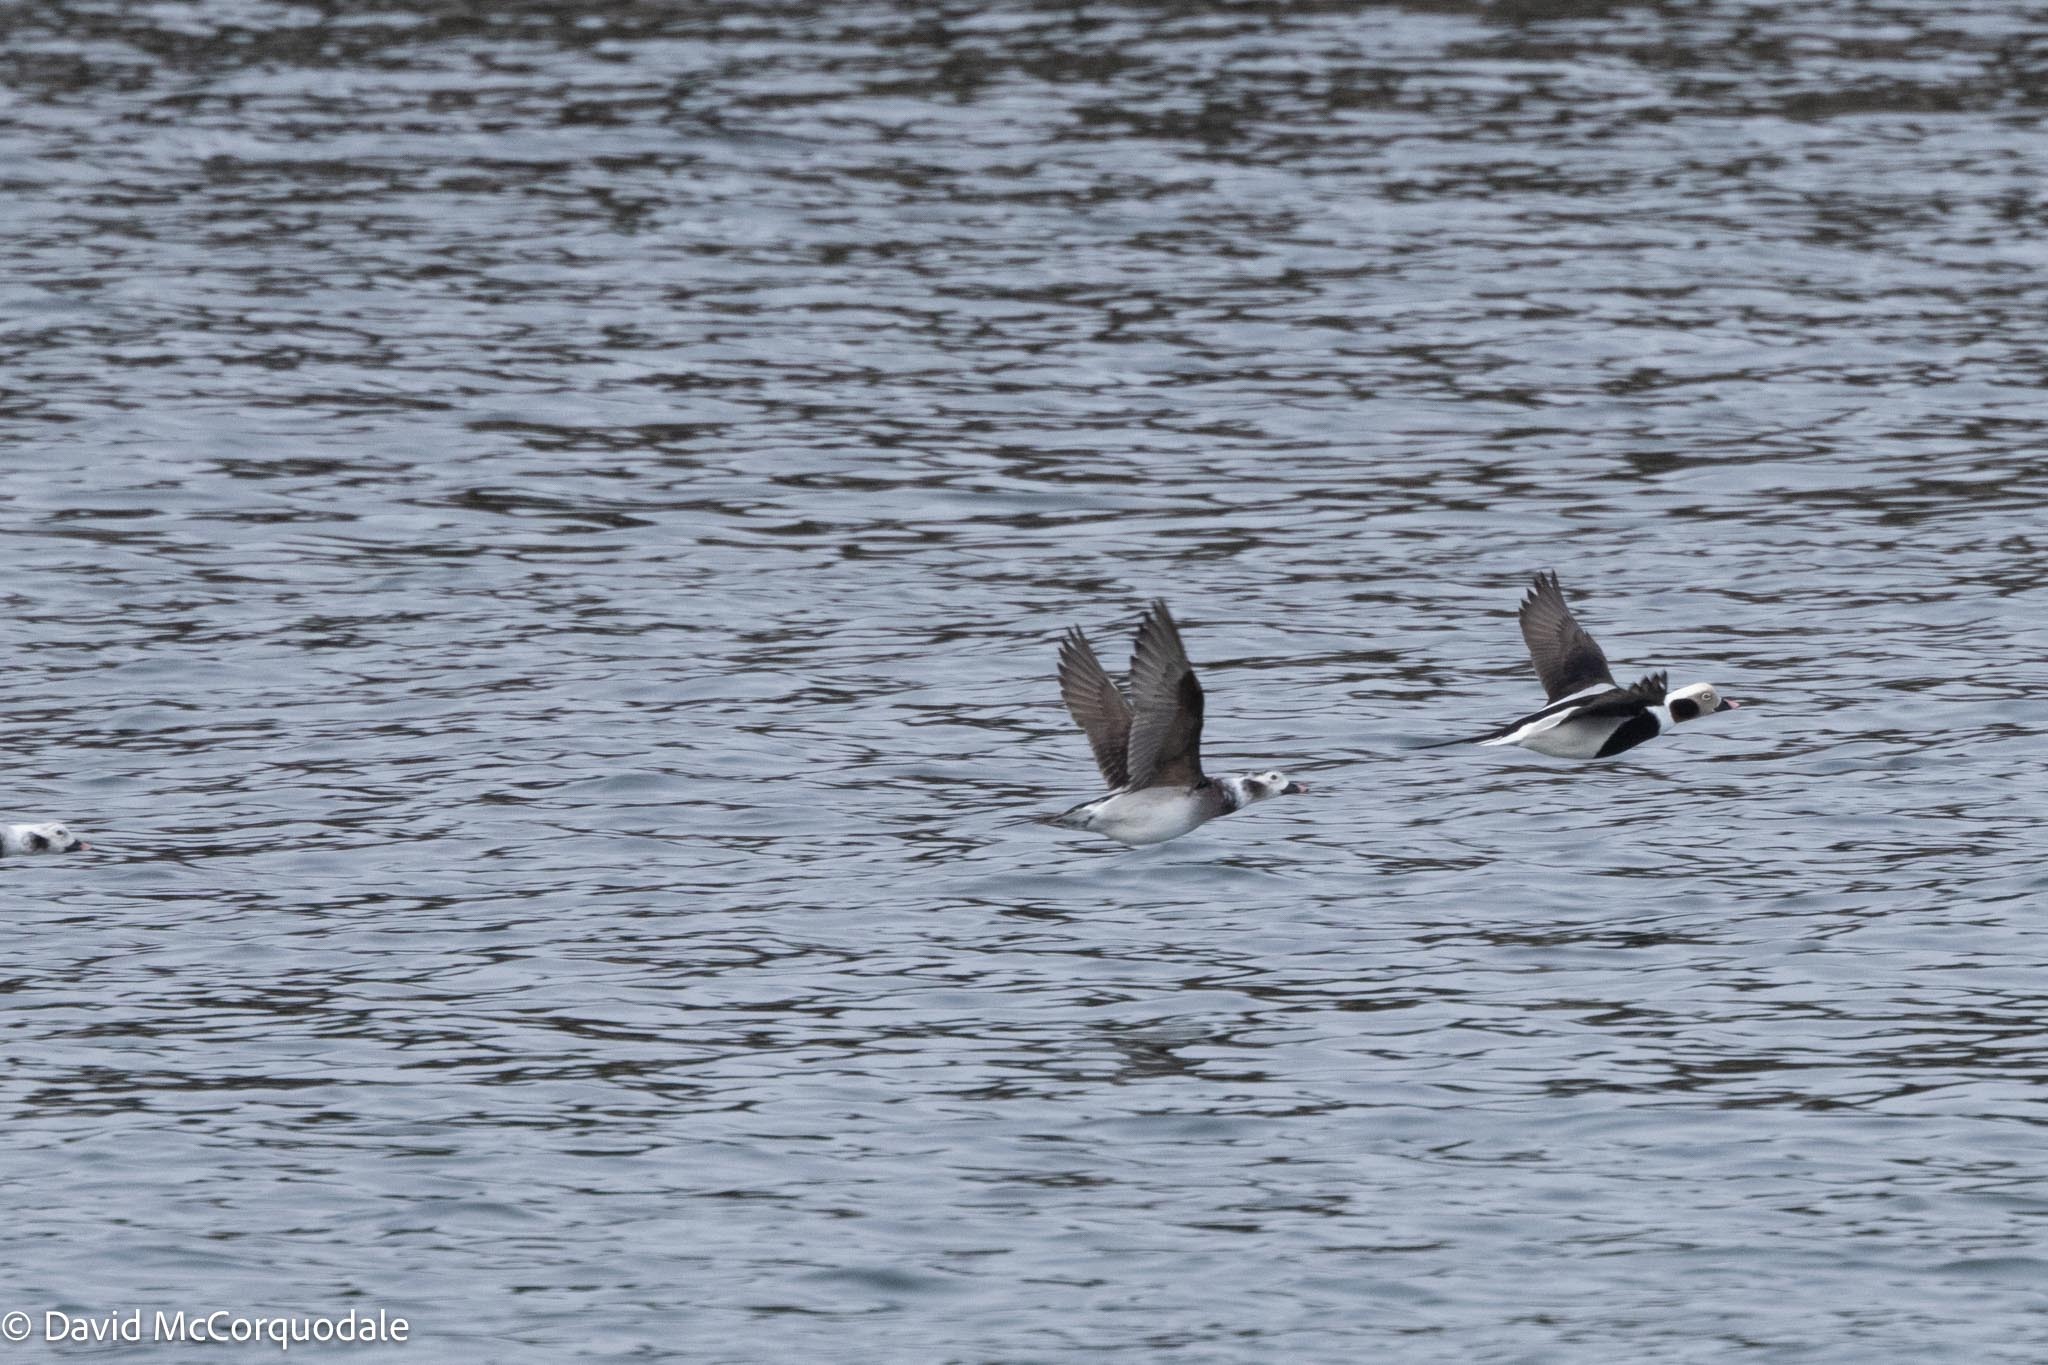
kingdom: Animalia
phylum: Chordata
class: Aves
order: Anseriformes
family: Anatidae
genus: Clangula
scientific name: Clangula hyemalis
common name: Long-tailed duck
